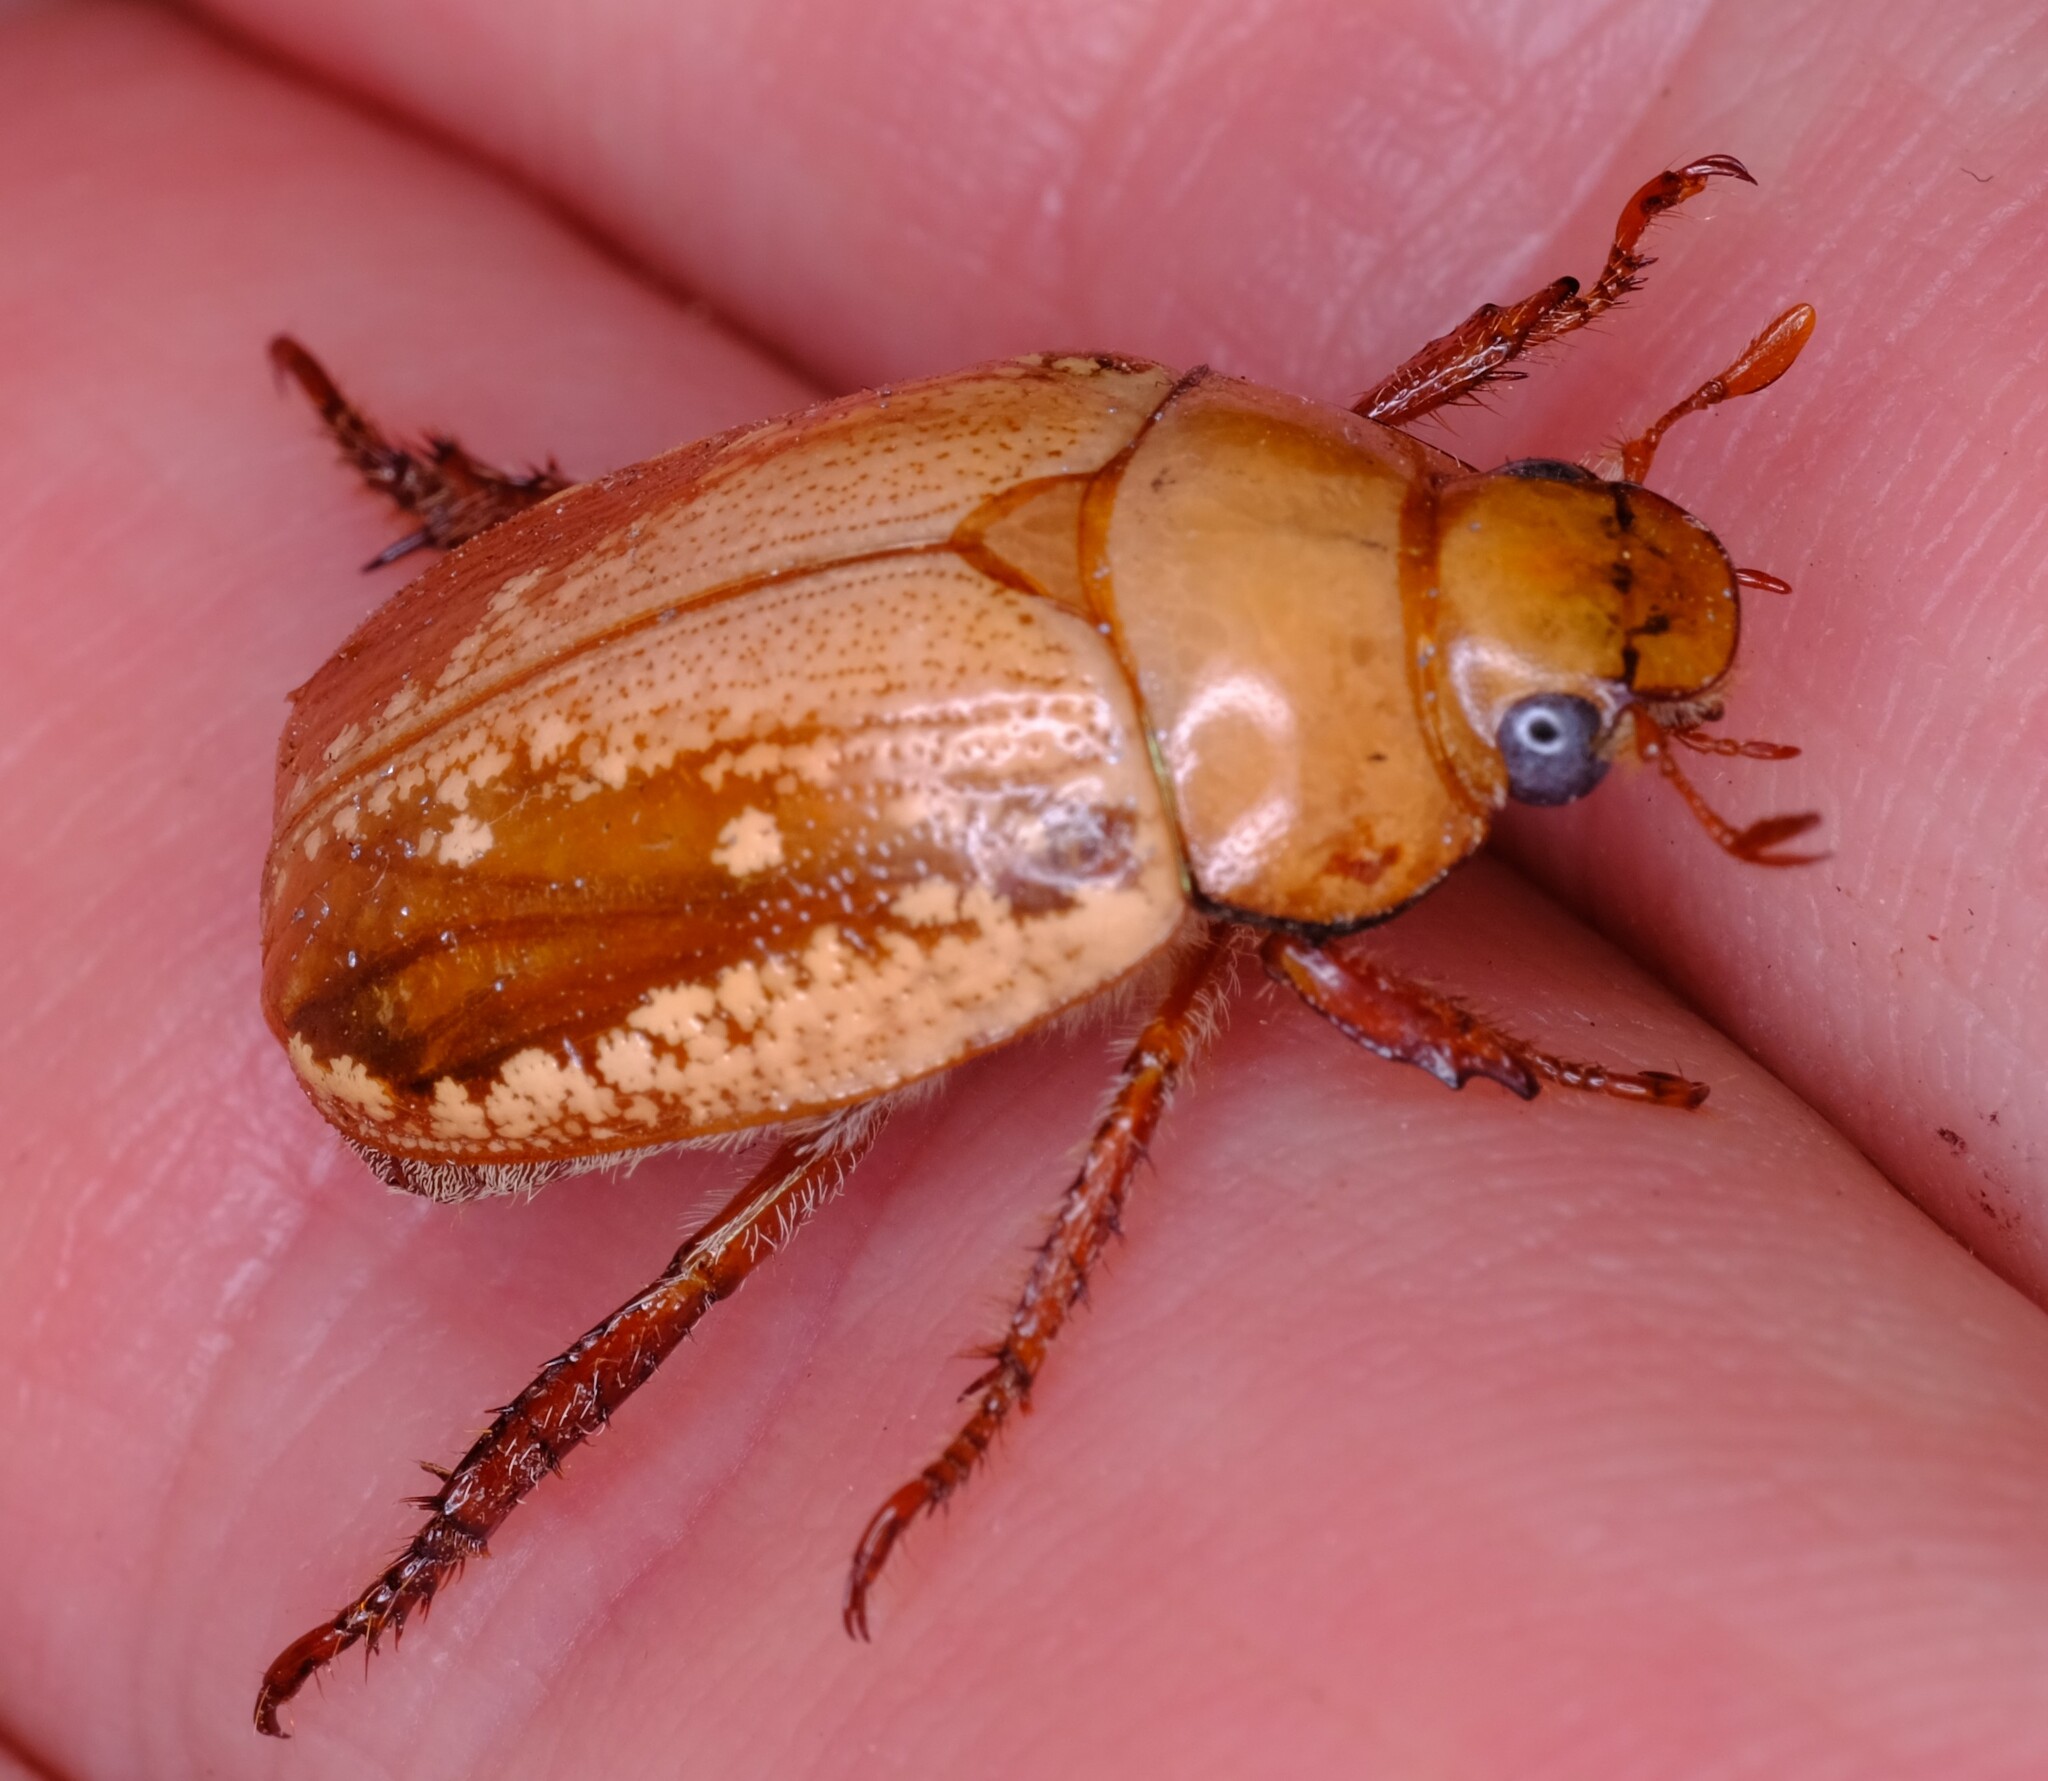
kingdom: Animalia
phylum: Arthropoda
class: Insecta
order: Coleoptera
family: Scarabaeidae
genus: Anoplognathus
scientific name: Anoplognathus concolor
